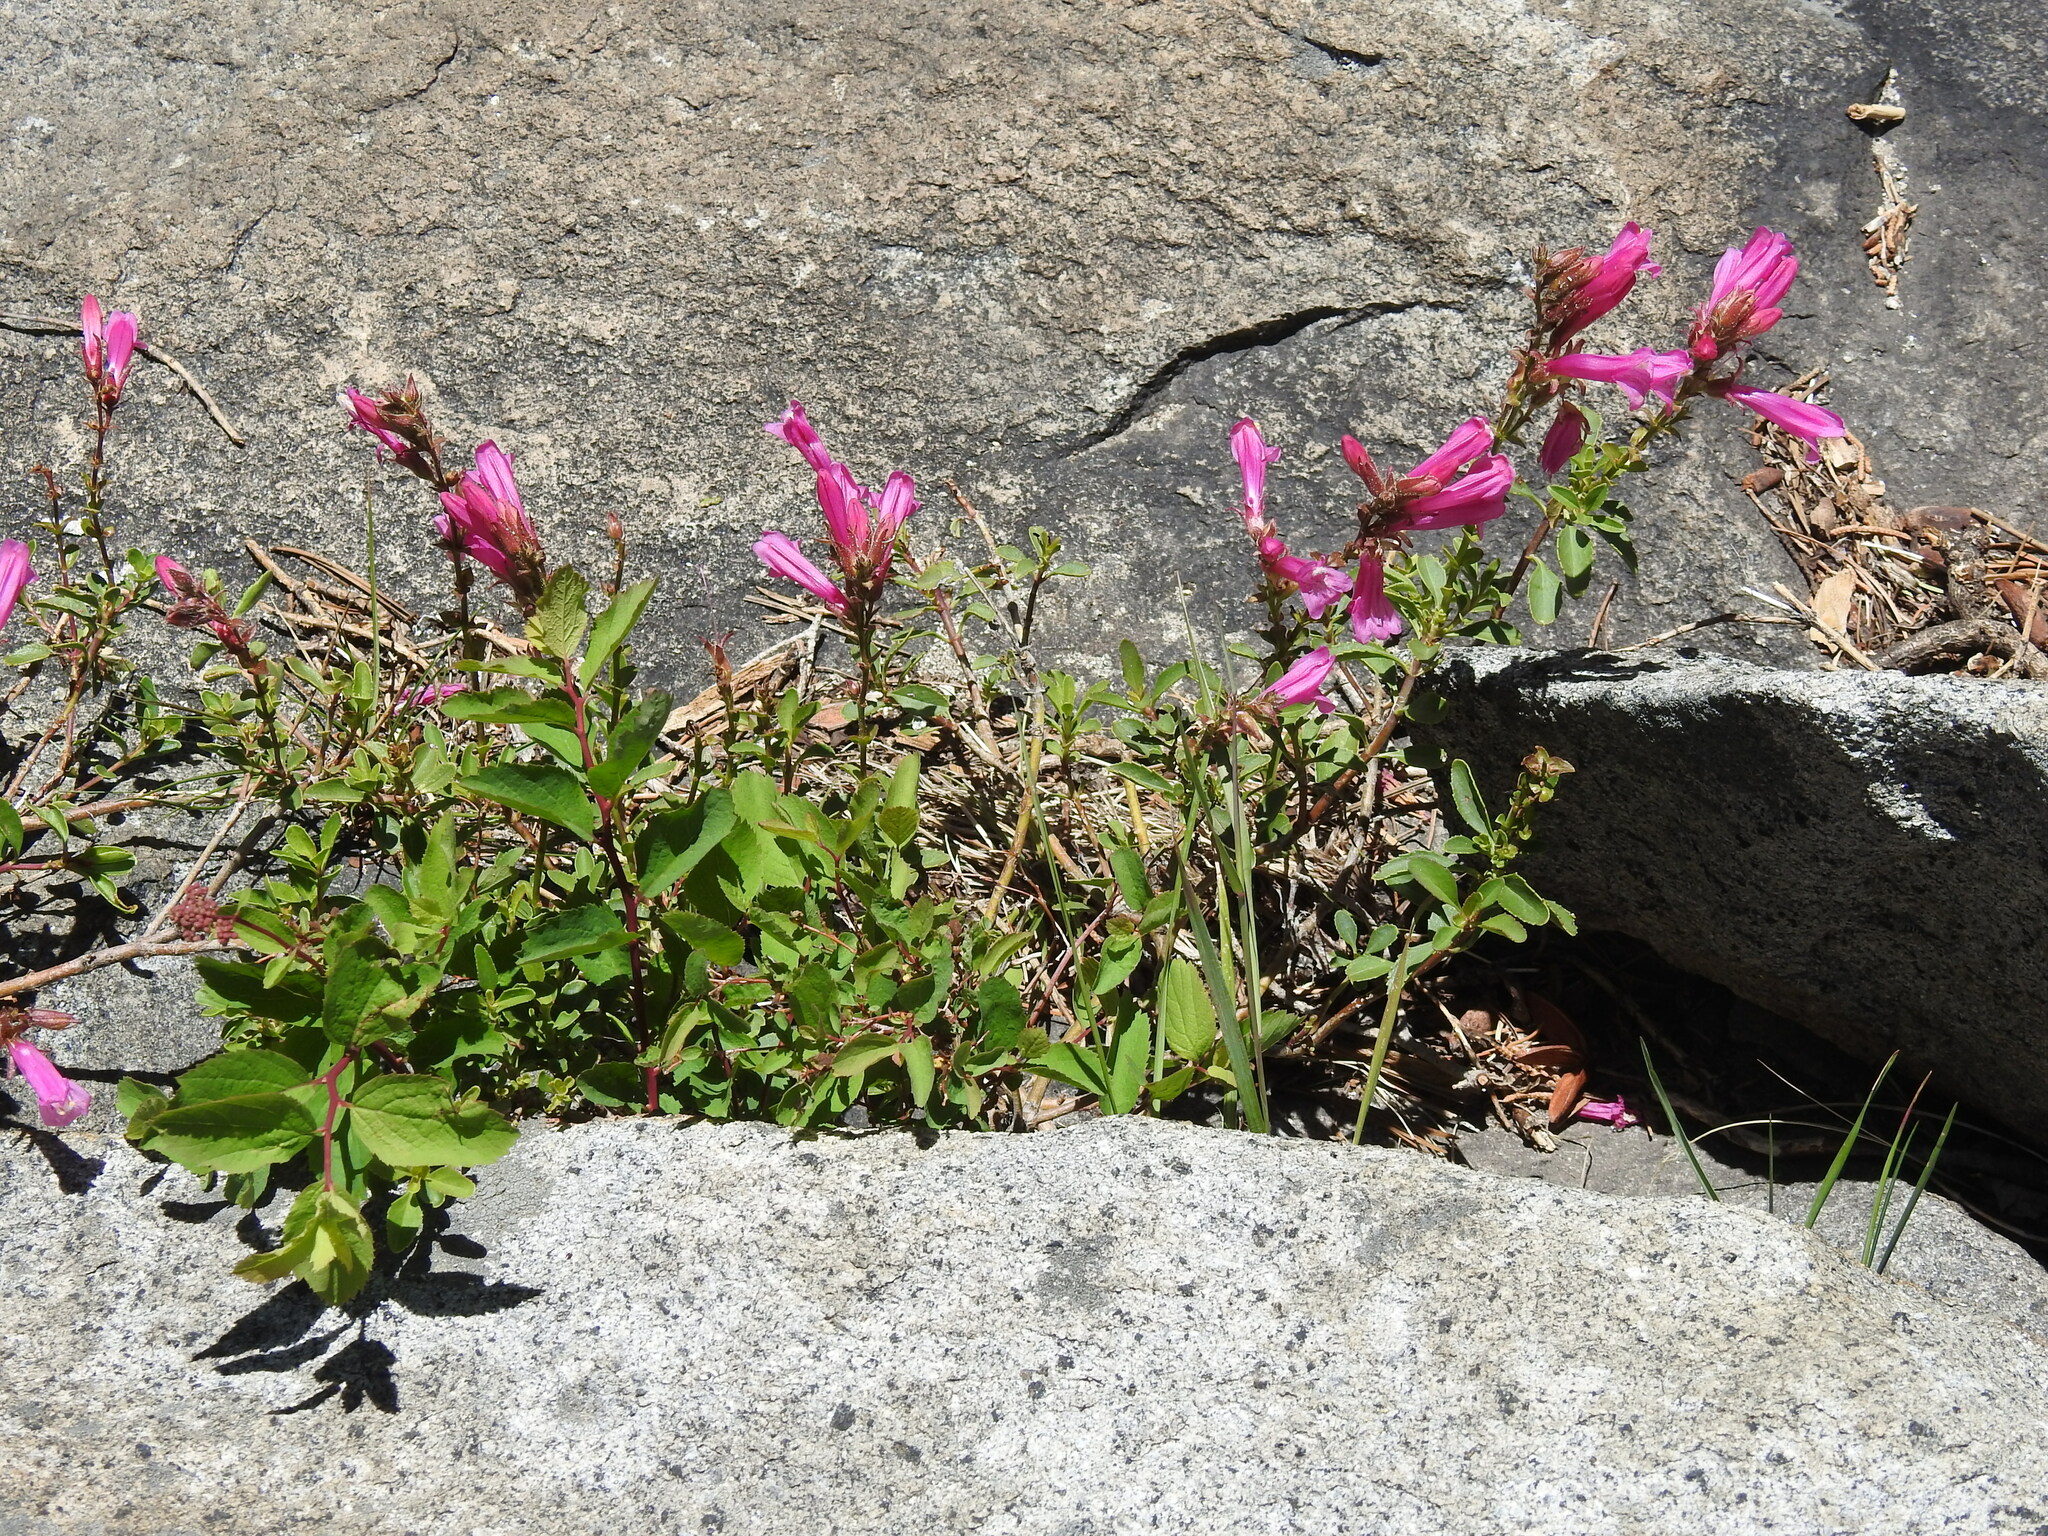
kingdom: Plantae
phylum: Tracheophyta
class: Magnoliopsida
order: Lamiales
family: Plantaginaceae
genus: Penstemon
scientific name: Penstemon newberryi
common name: Mountain-pride
